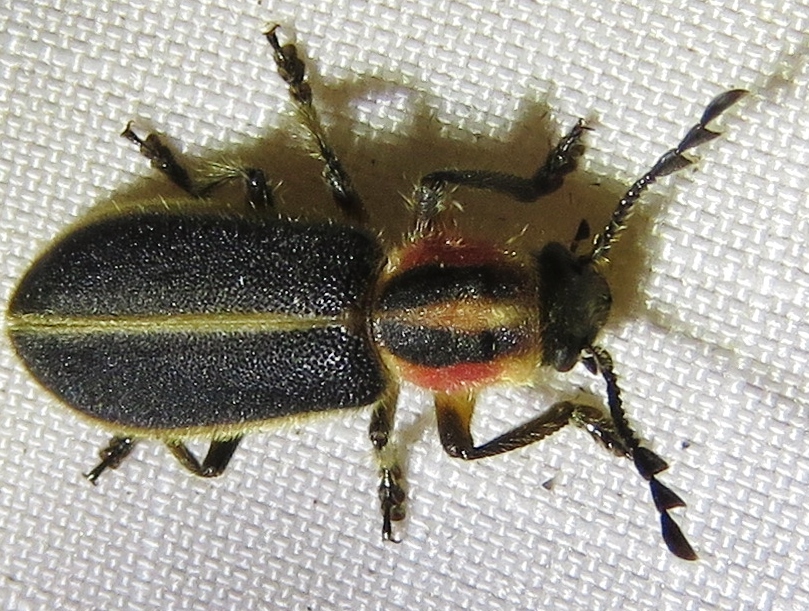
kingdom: Animalia
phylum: Arthropoda
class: Insecta
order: Coleoptera
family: Cleridae
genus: Chariessa
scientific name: Chariessa pilosa
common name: Pilose checkered beetle
